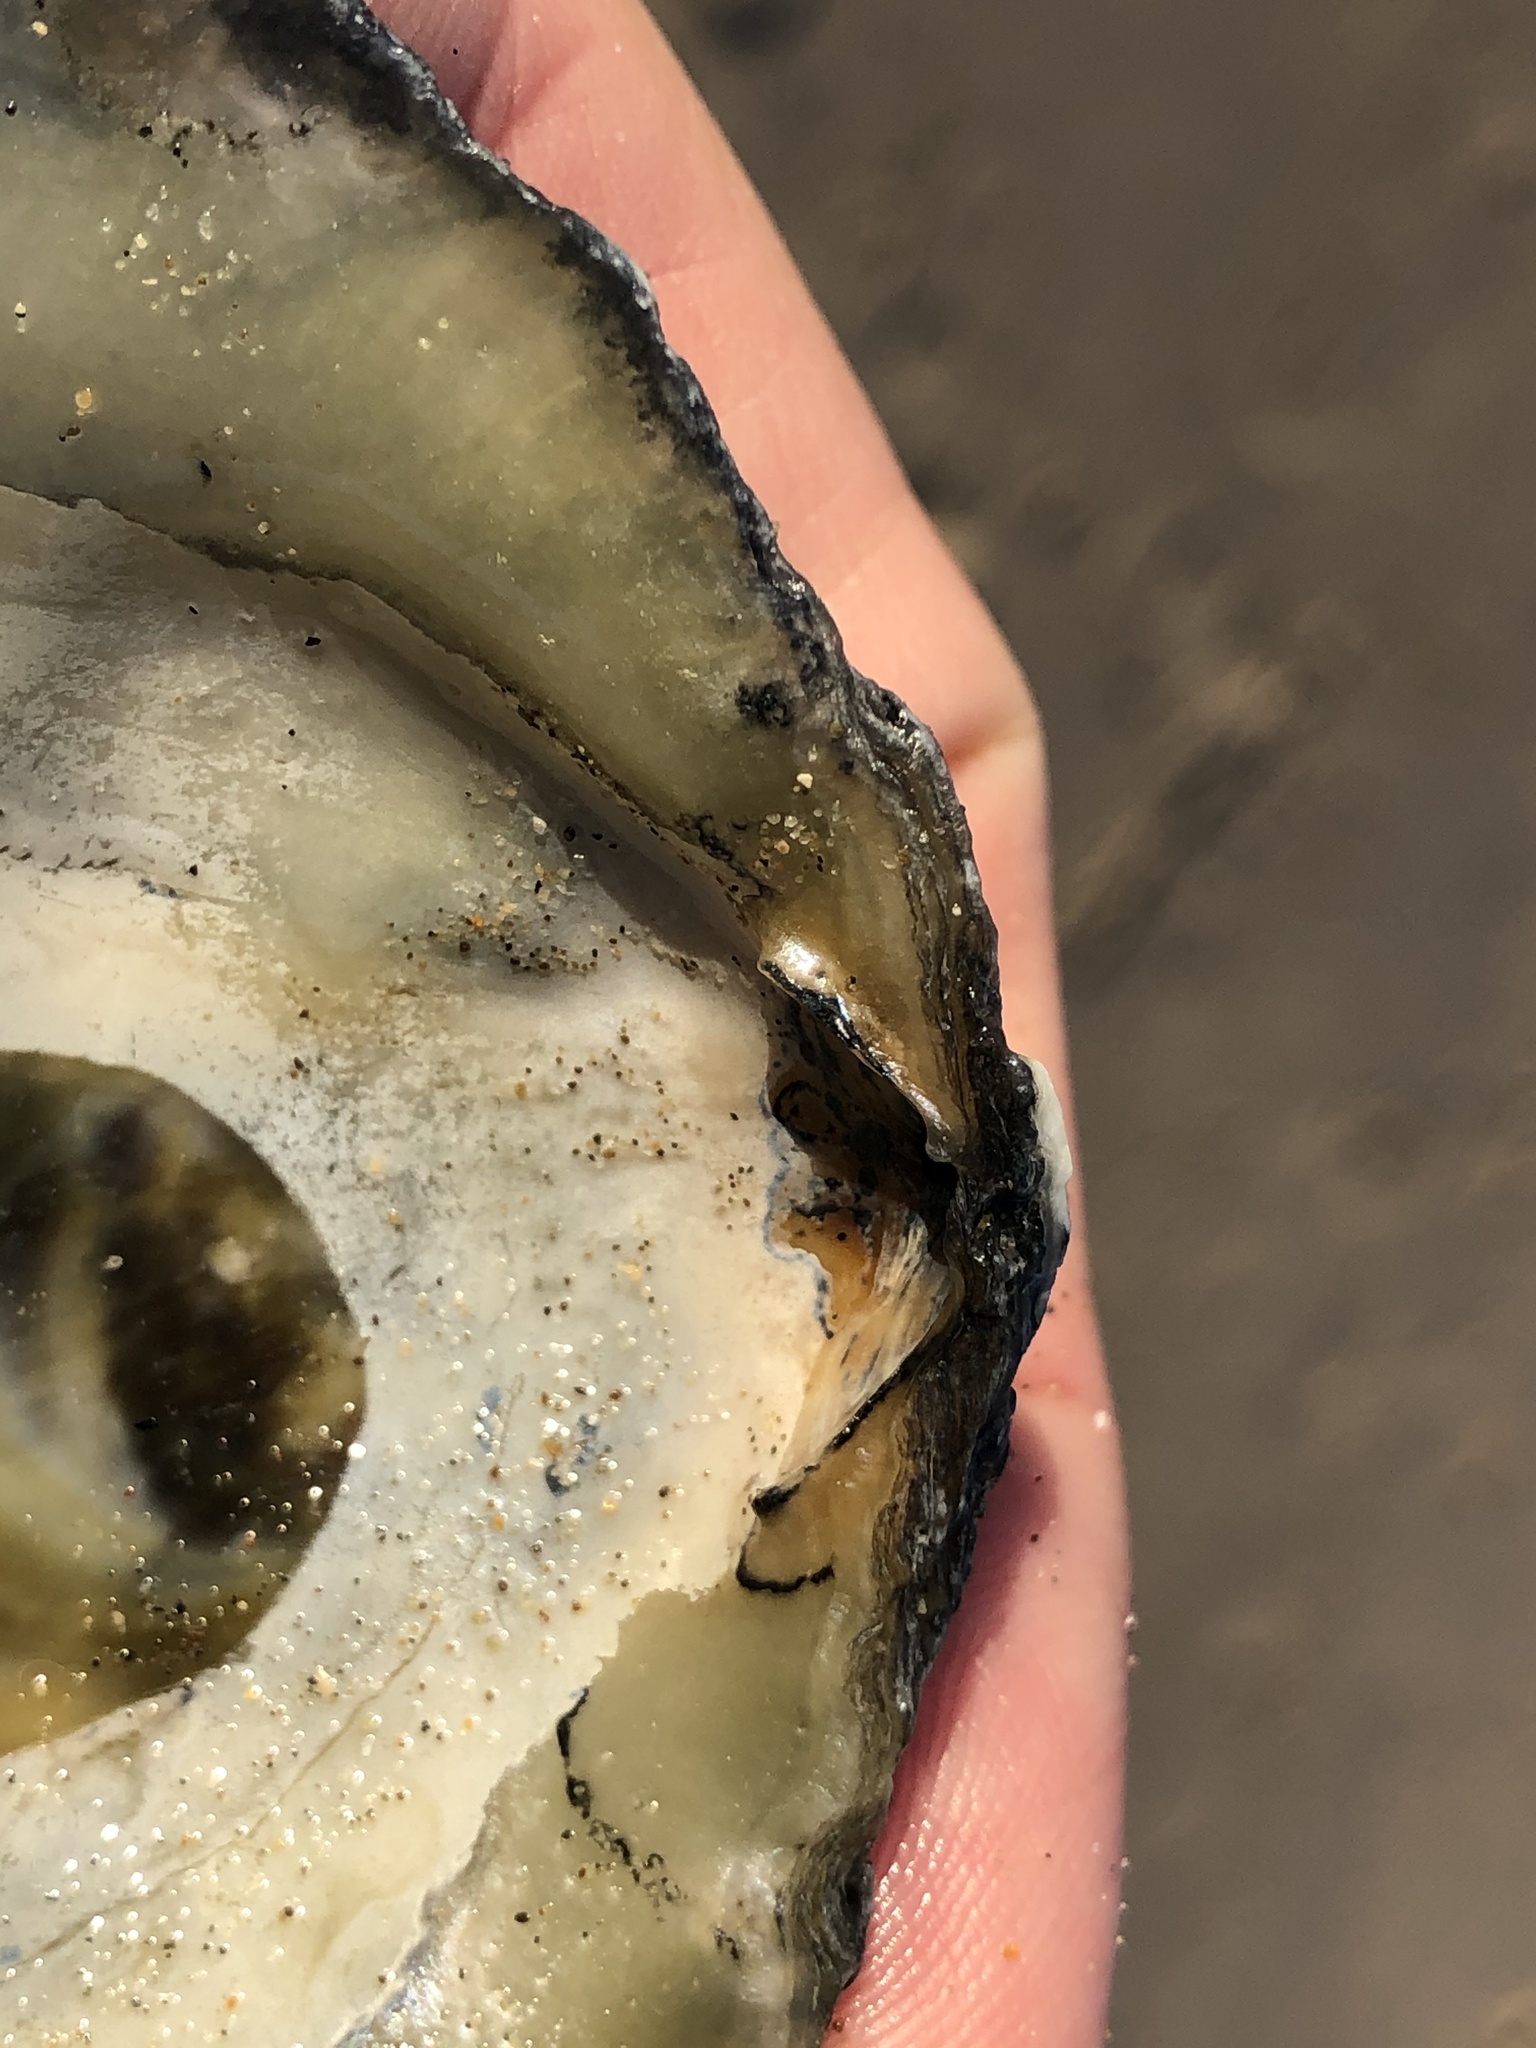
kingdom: Animalia
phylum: Mollusca
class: Bivalvia
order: Pectinida
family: Anomiidae
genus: Pododesmus
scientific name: Pododesmus macrochisma
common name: Alaska jingle
